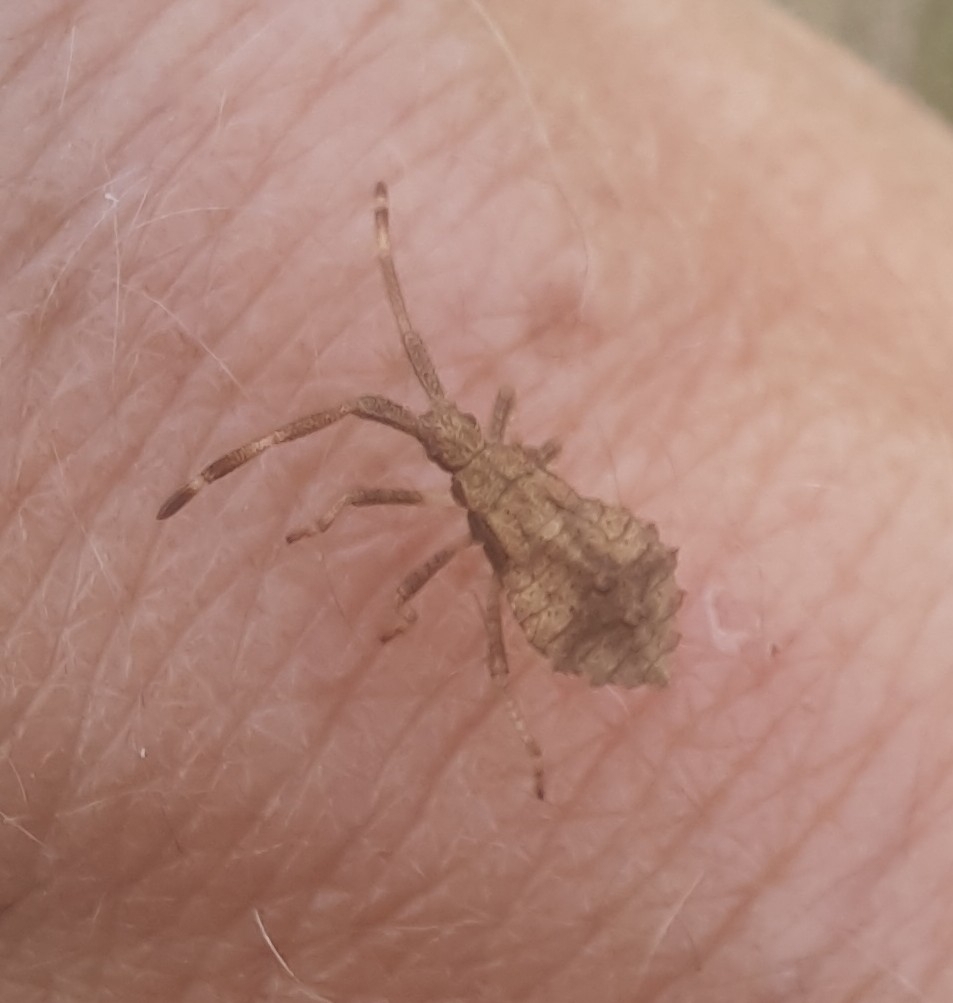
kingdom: Animalia
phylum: Arthropoda
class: Insecta
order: Hemiptera
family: Coreidae
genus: Coreus
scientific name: Coreus marginatus
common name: Dock bug
